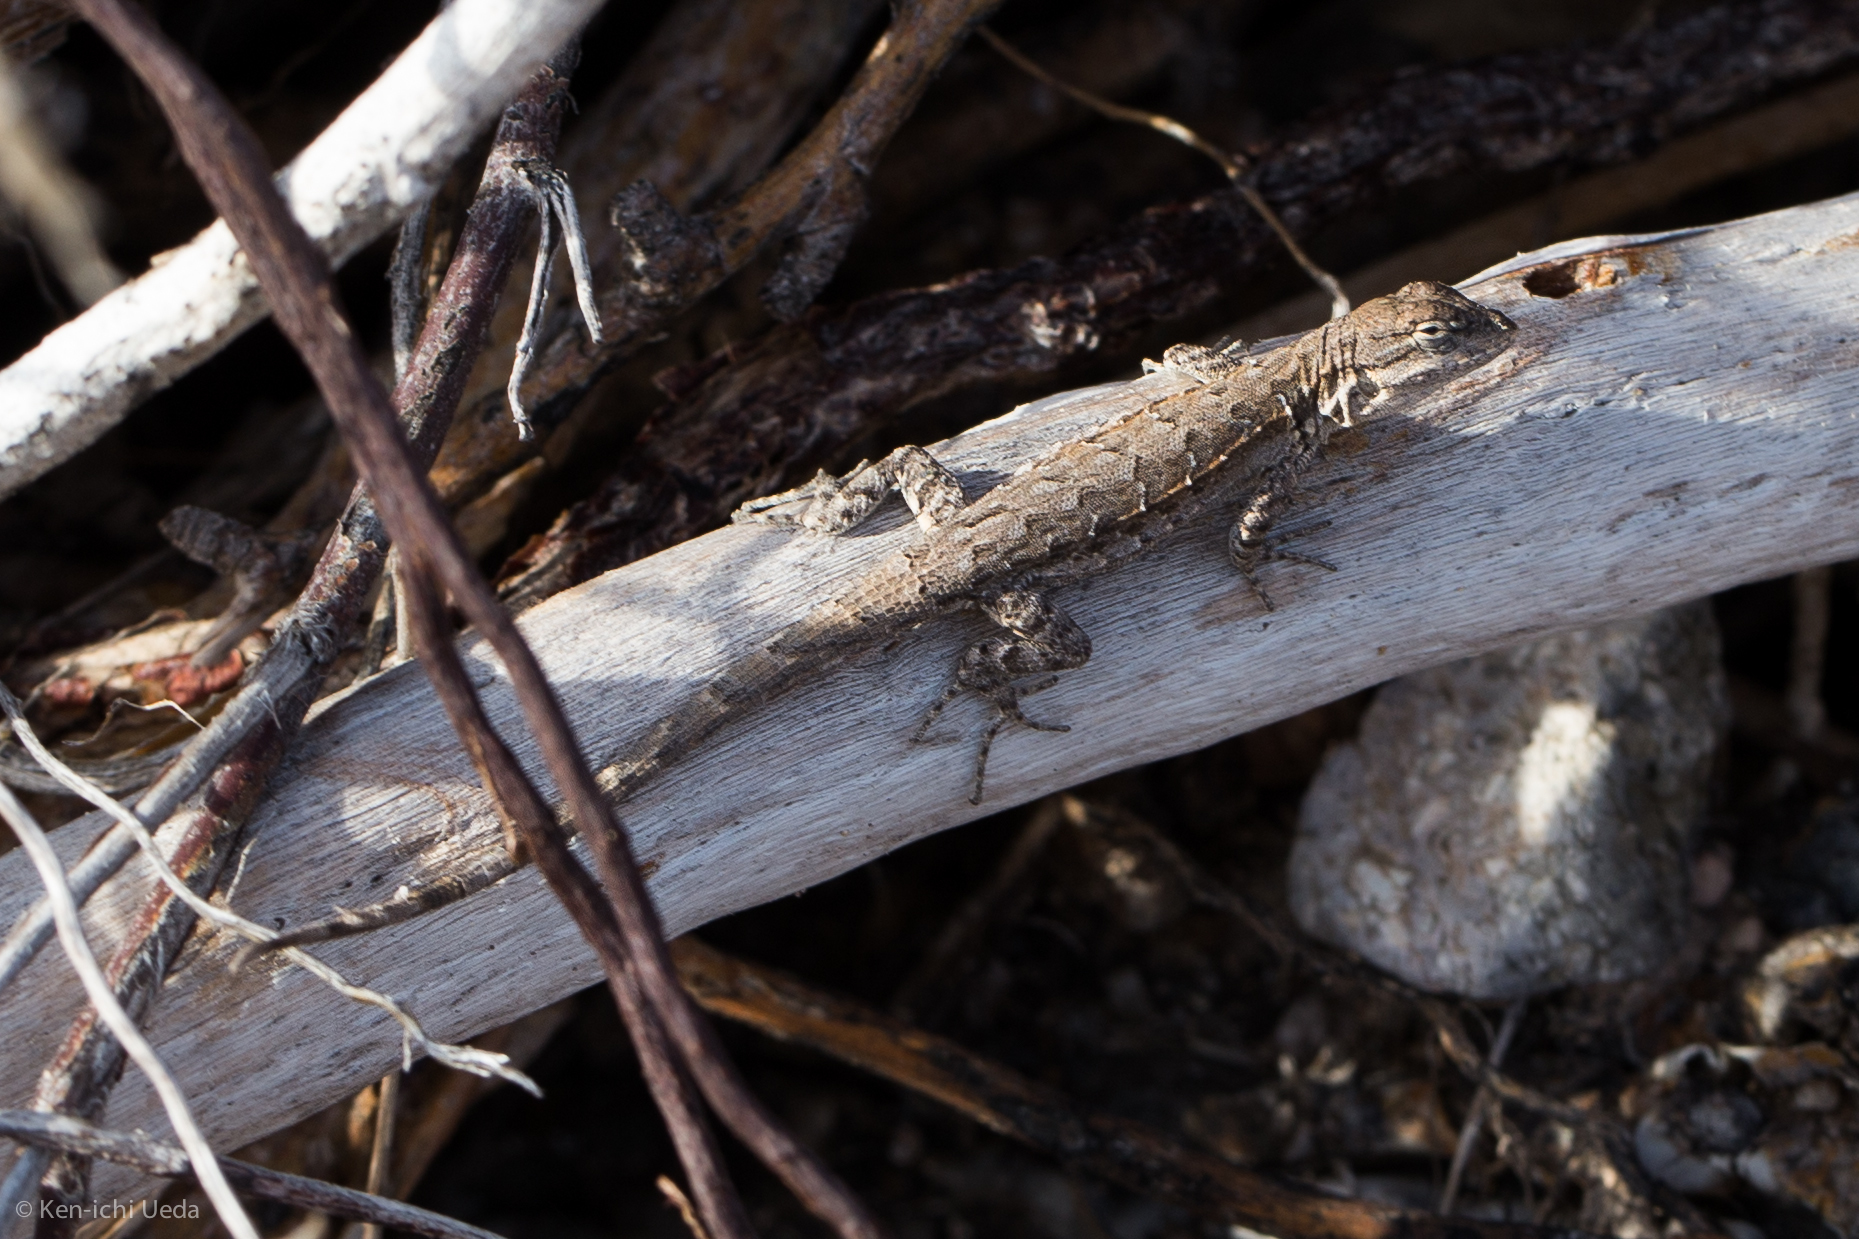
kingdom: Animalia
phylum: Chordata
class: Squamata
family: Phrynosomatidae
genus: Urosaurus
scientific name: Urosaurus nigricauda
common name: Baja california brush lizard
